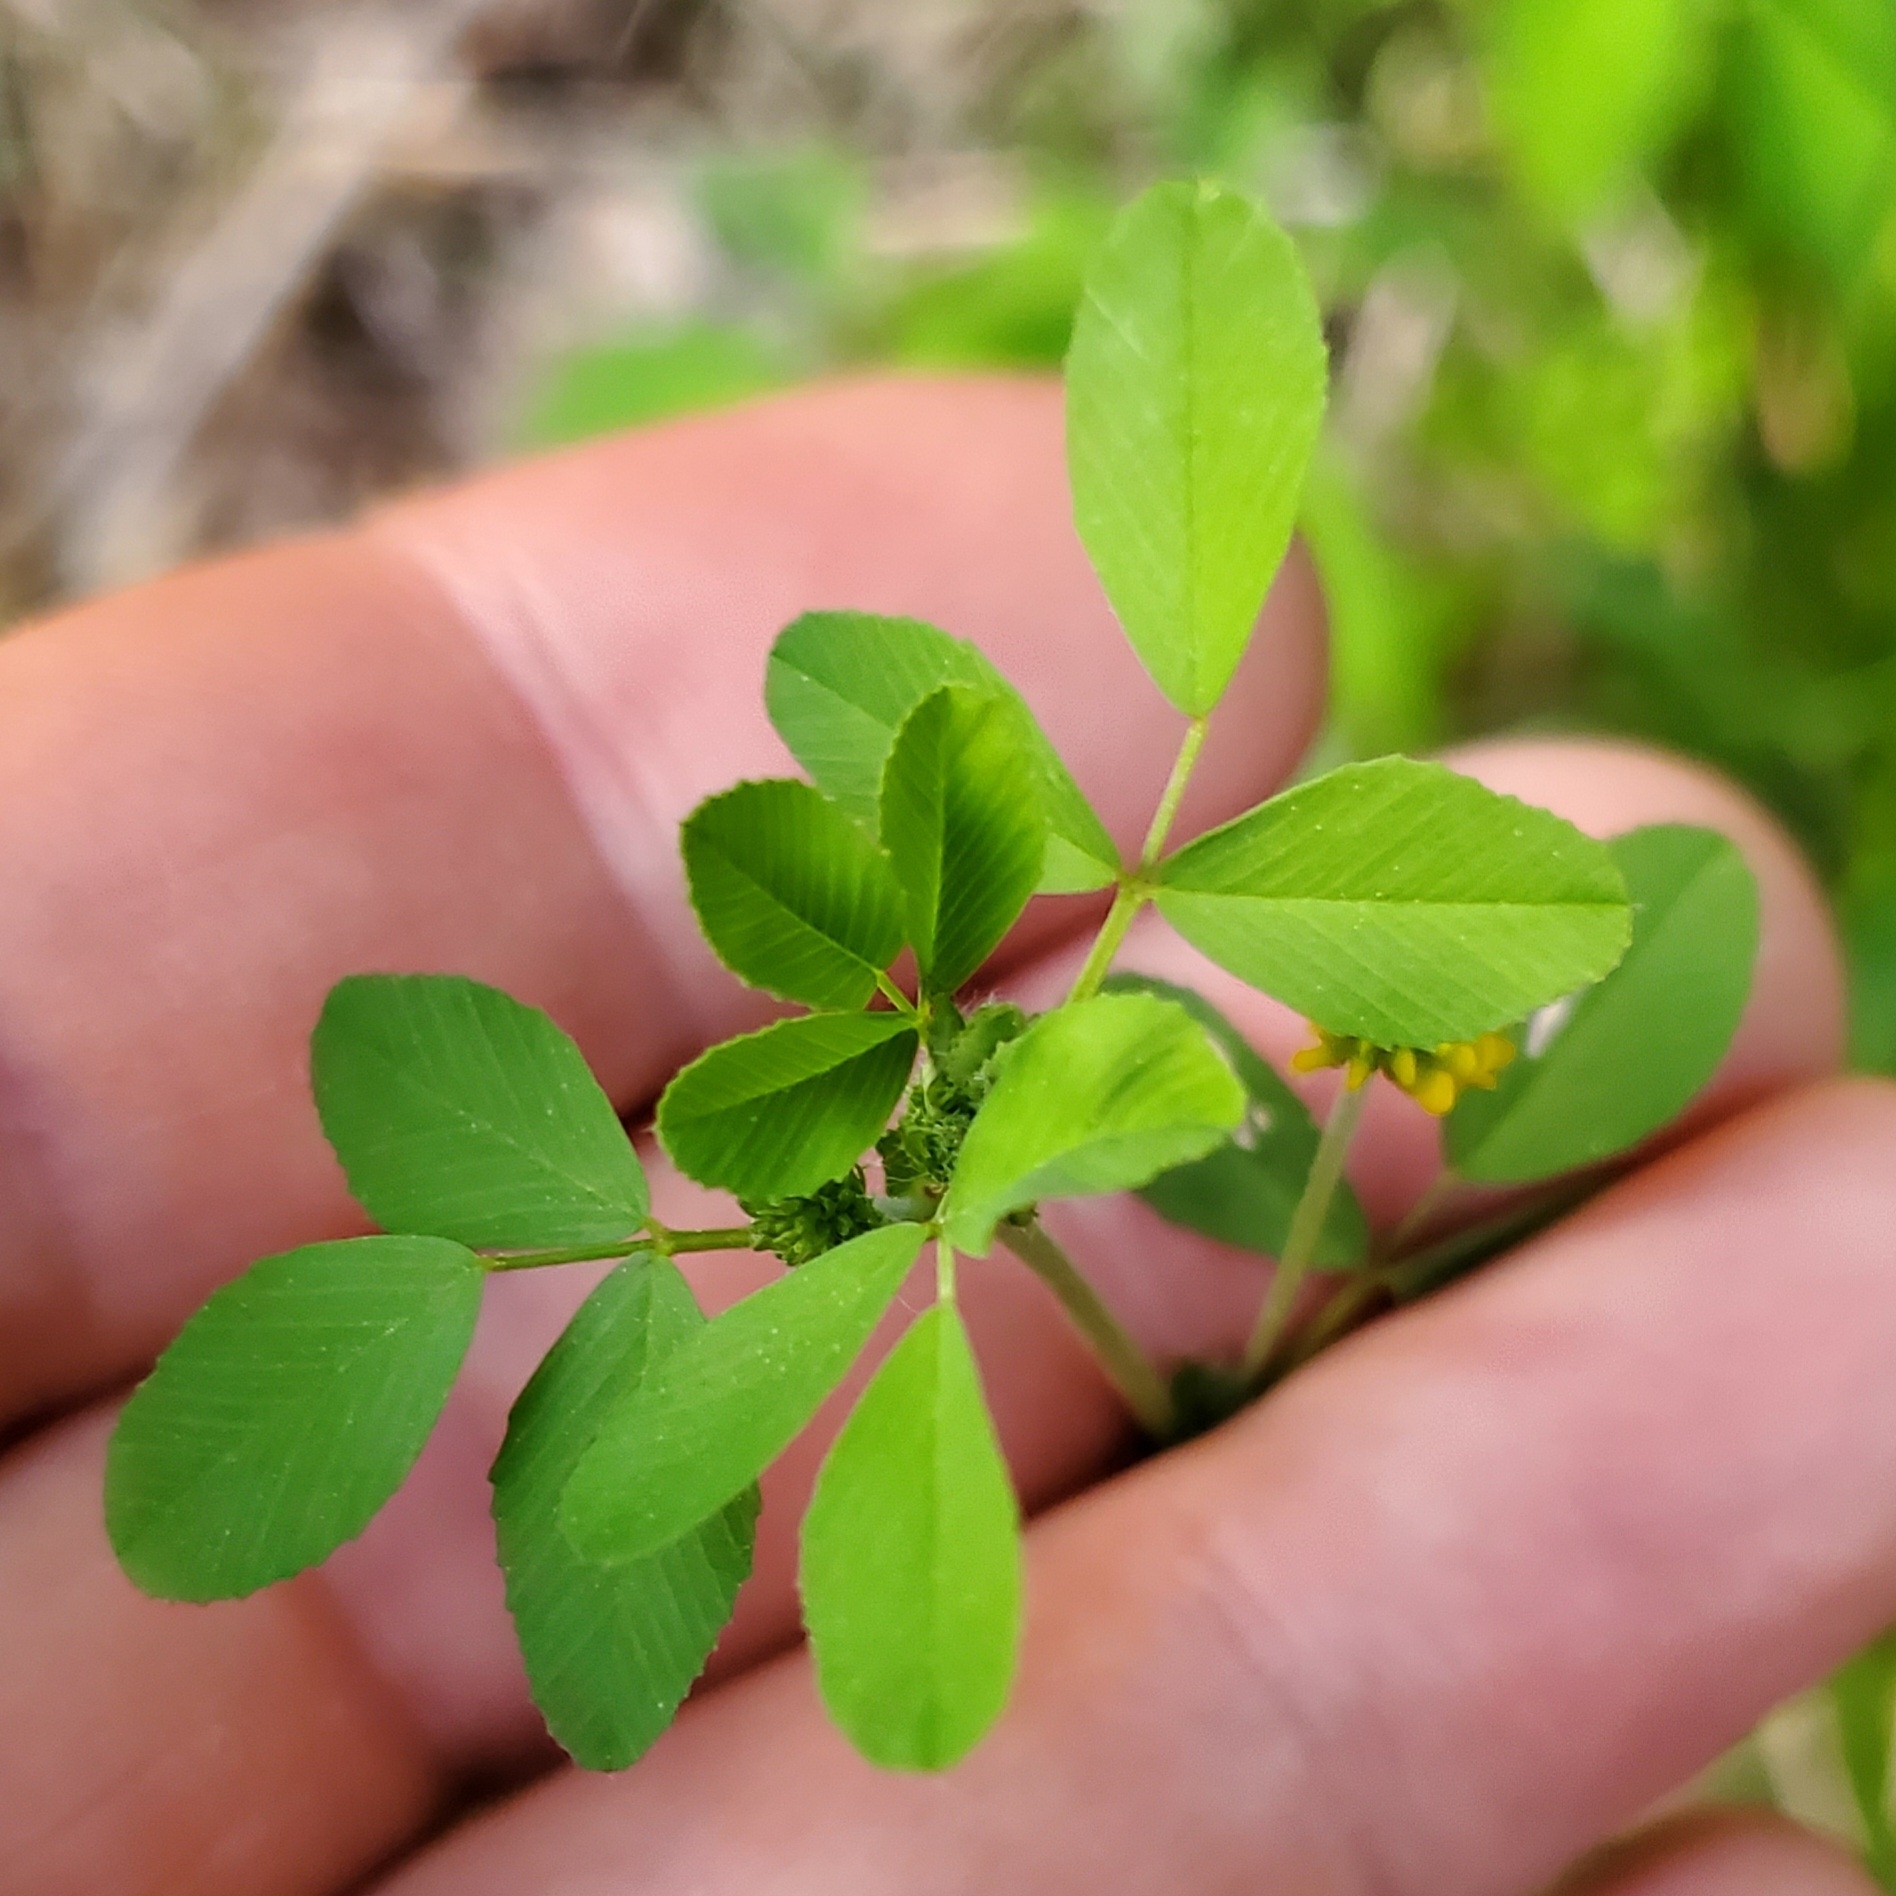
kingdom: Plantae
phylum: Tracheophyta
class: Magnoliopsida
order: Fabales
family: Fabaceae
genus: Trifolium
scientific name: Trifolium campestre
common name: Field clover
